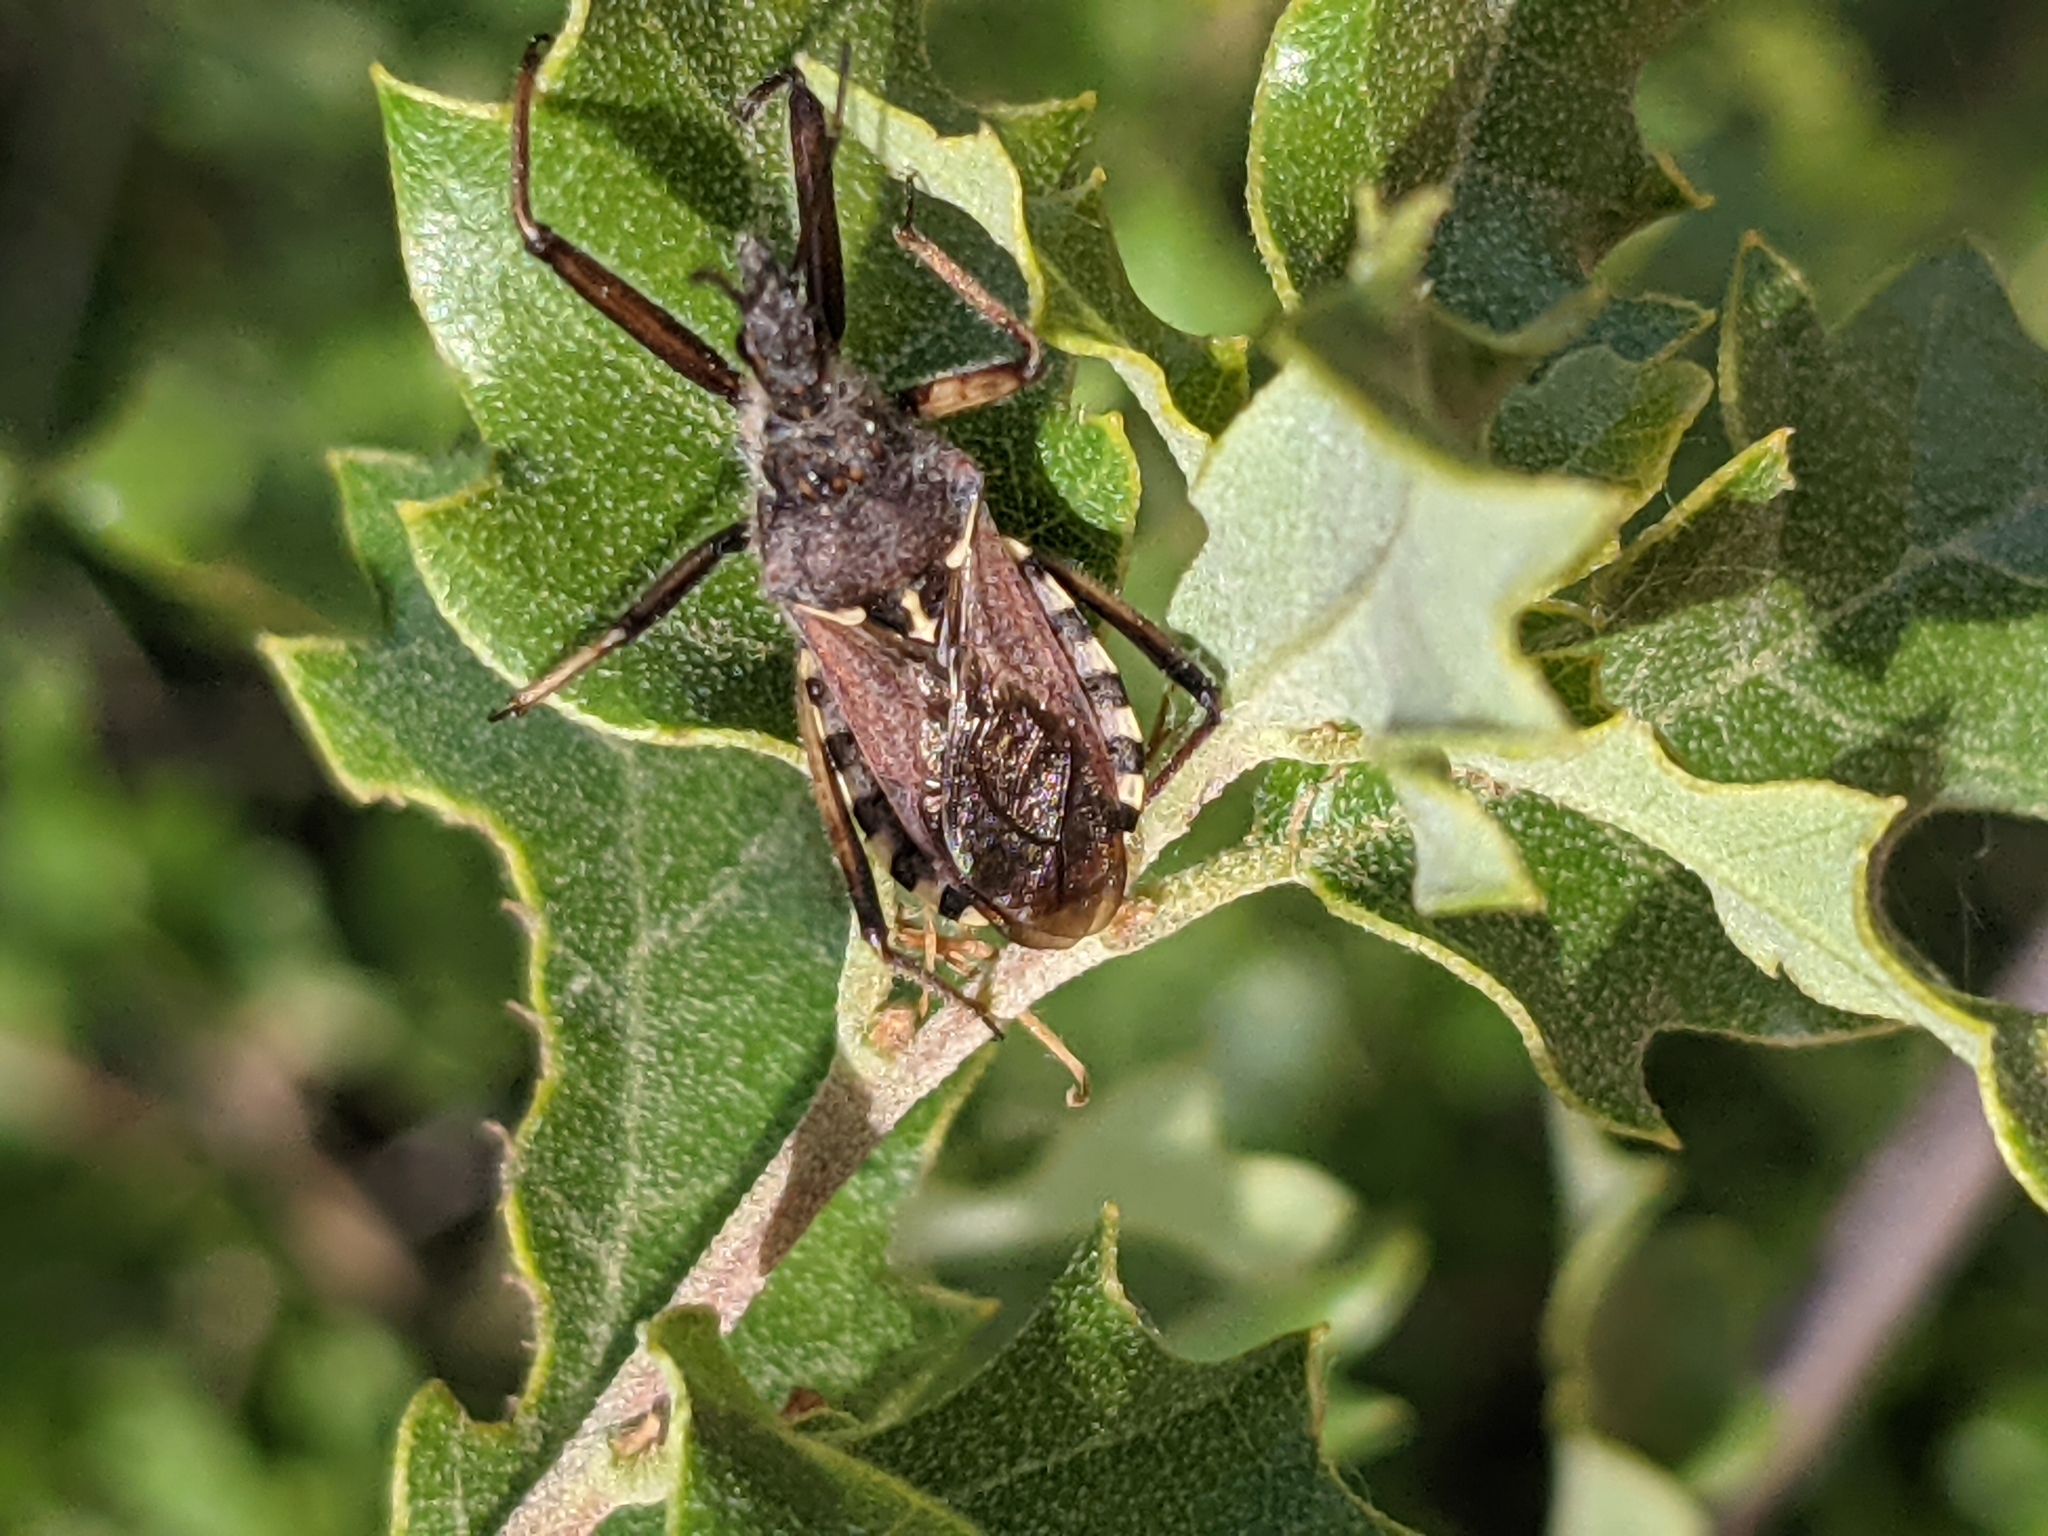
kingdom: Animalia
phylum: Arthropoda
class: Insecta
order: Hemiptera
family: Reduviidae
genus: Rhynocoris
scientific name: Rhynocoris erythropus
